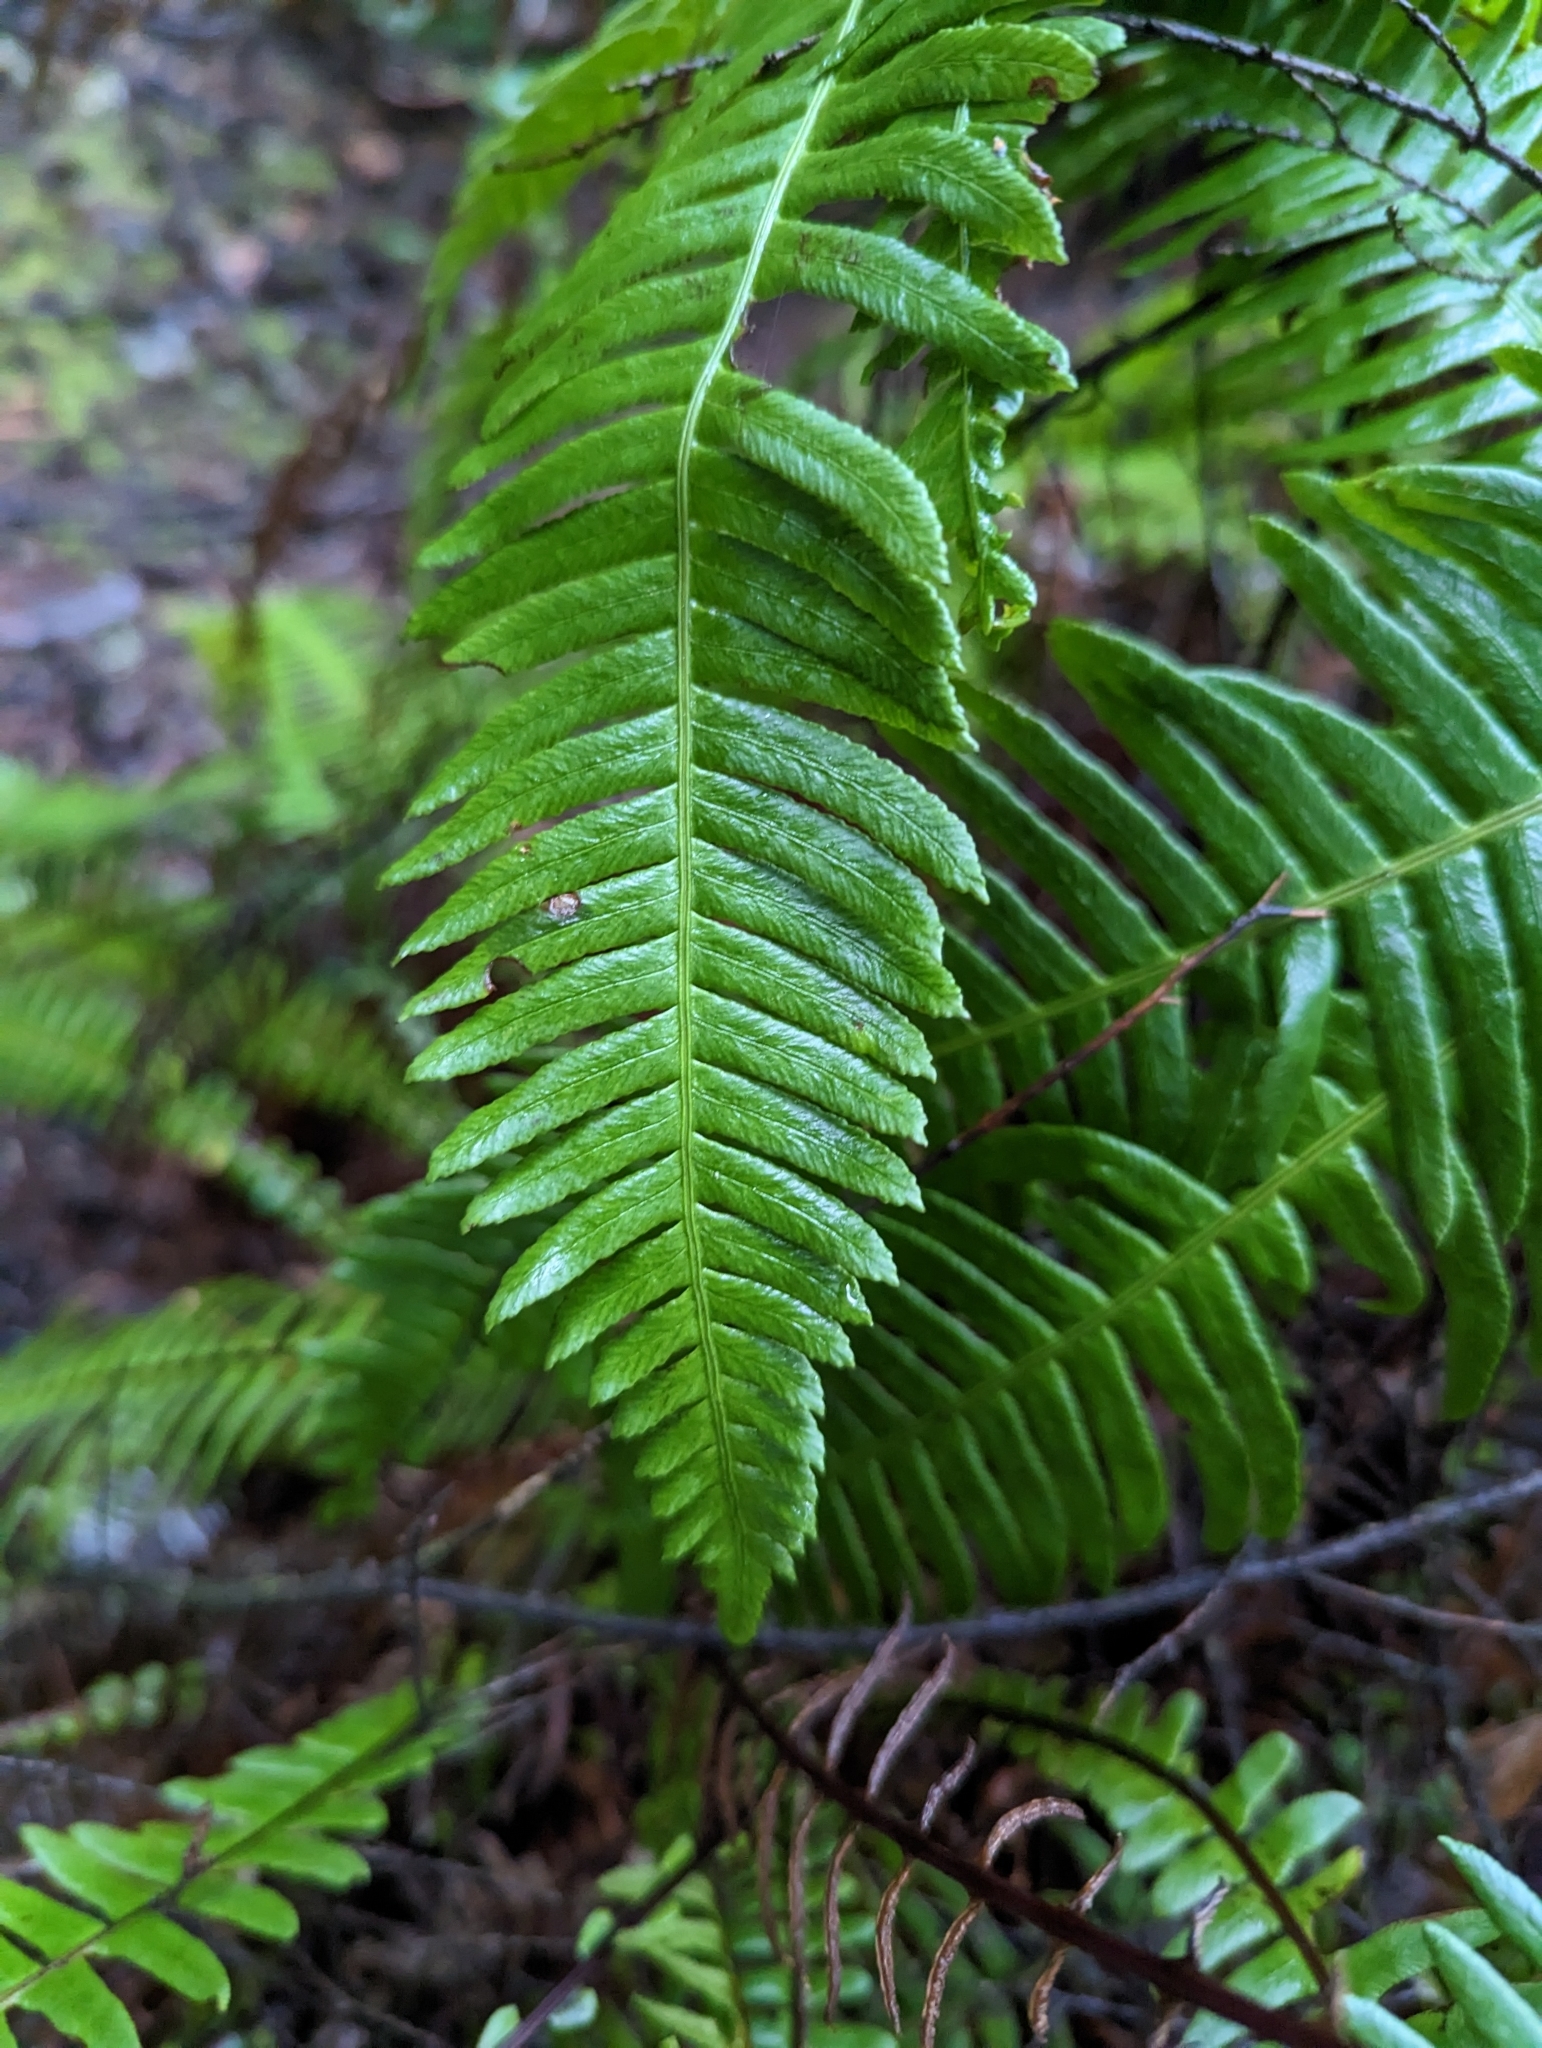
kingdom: Plantae
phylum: Tracheophyta
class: Polypodiopsida
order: Polypodiales
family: Blechnaceae
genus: Struthiopteris
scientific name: Struthiopteris spicant
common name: Deer fern
